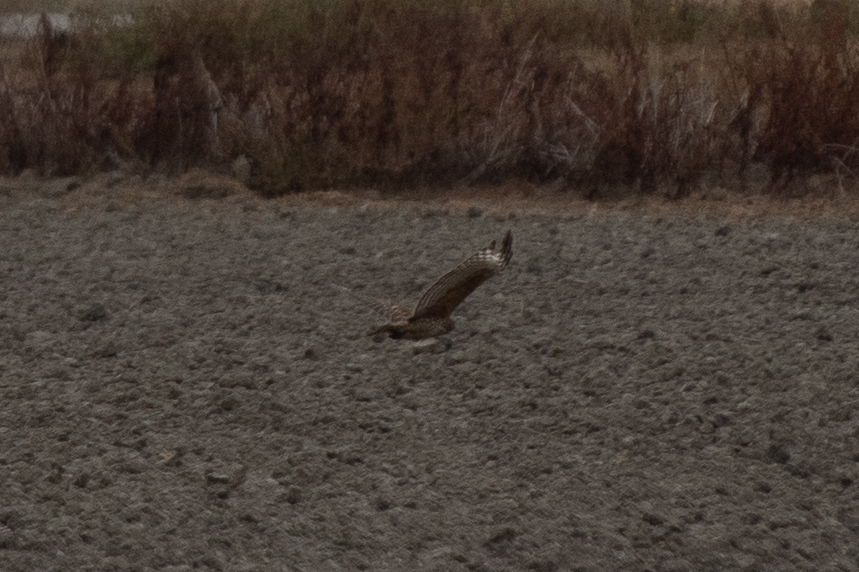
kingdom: Animalia
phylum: Chordata
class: Aves
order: Accipitriformes
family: Accipitridae
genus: Circus
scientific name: Circus cyaneus
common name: Hen harrier
